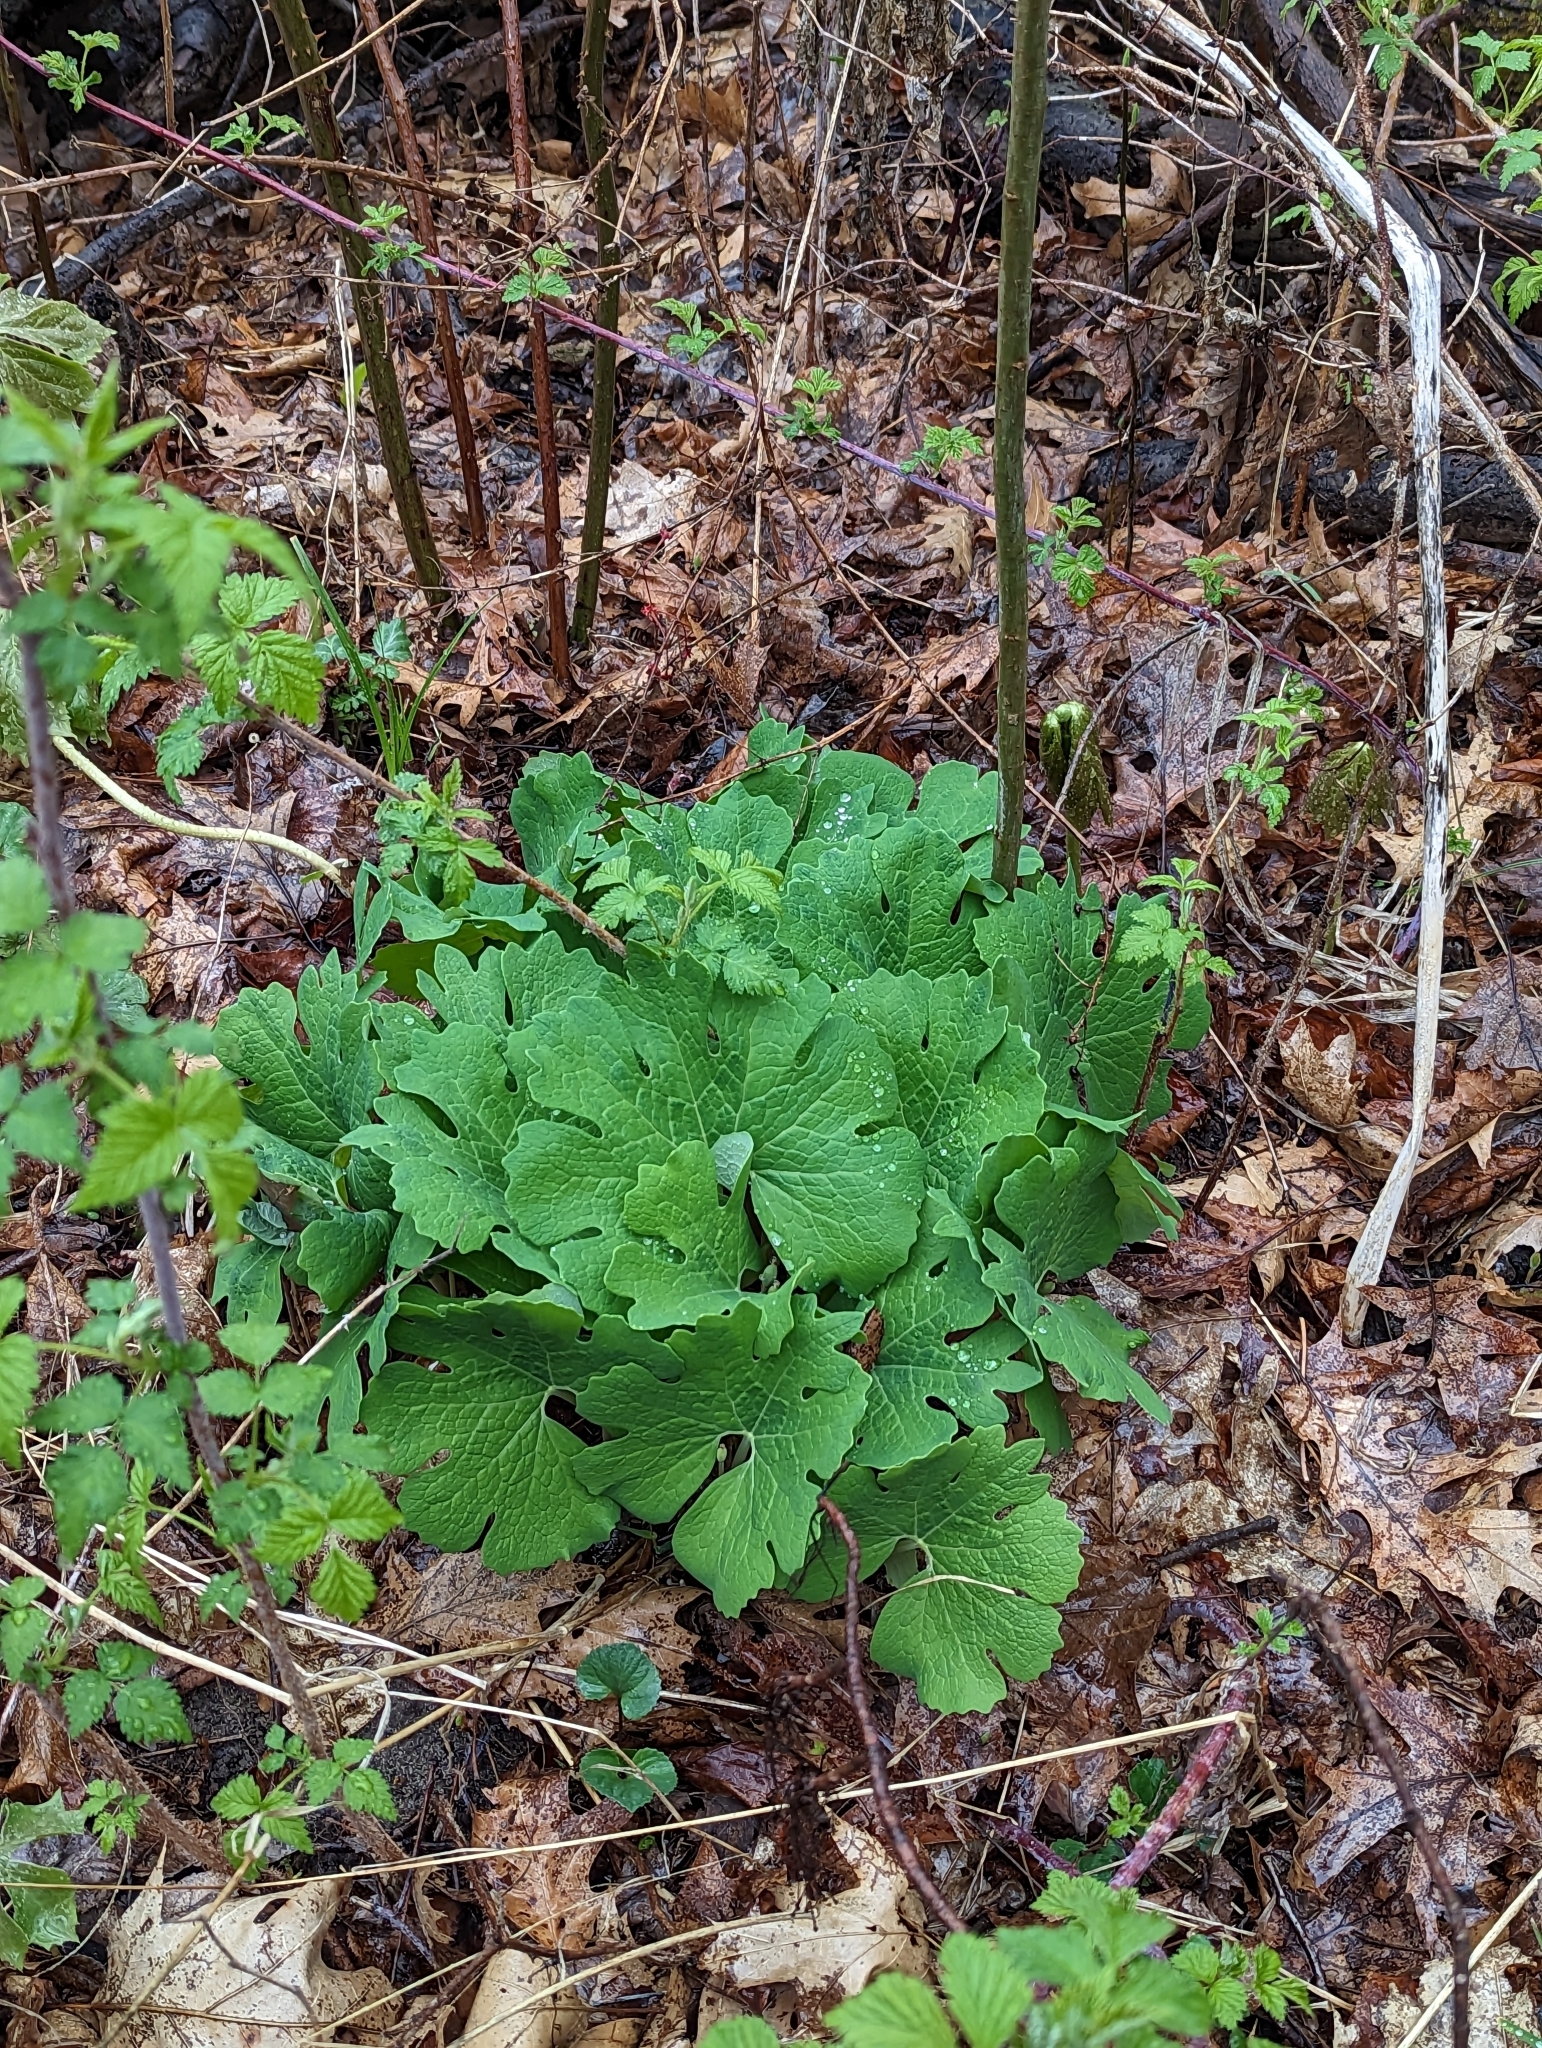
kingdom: Plantae
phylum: Tracheophyta
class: Magnoliopsida
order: Ranunculales
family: Papaveraceae
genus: Sanguinaria
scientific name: Sanguinaria canadensis
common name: Bloodroot
